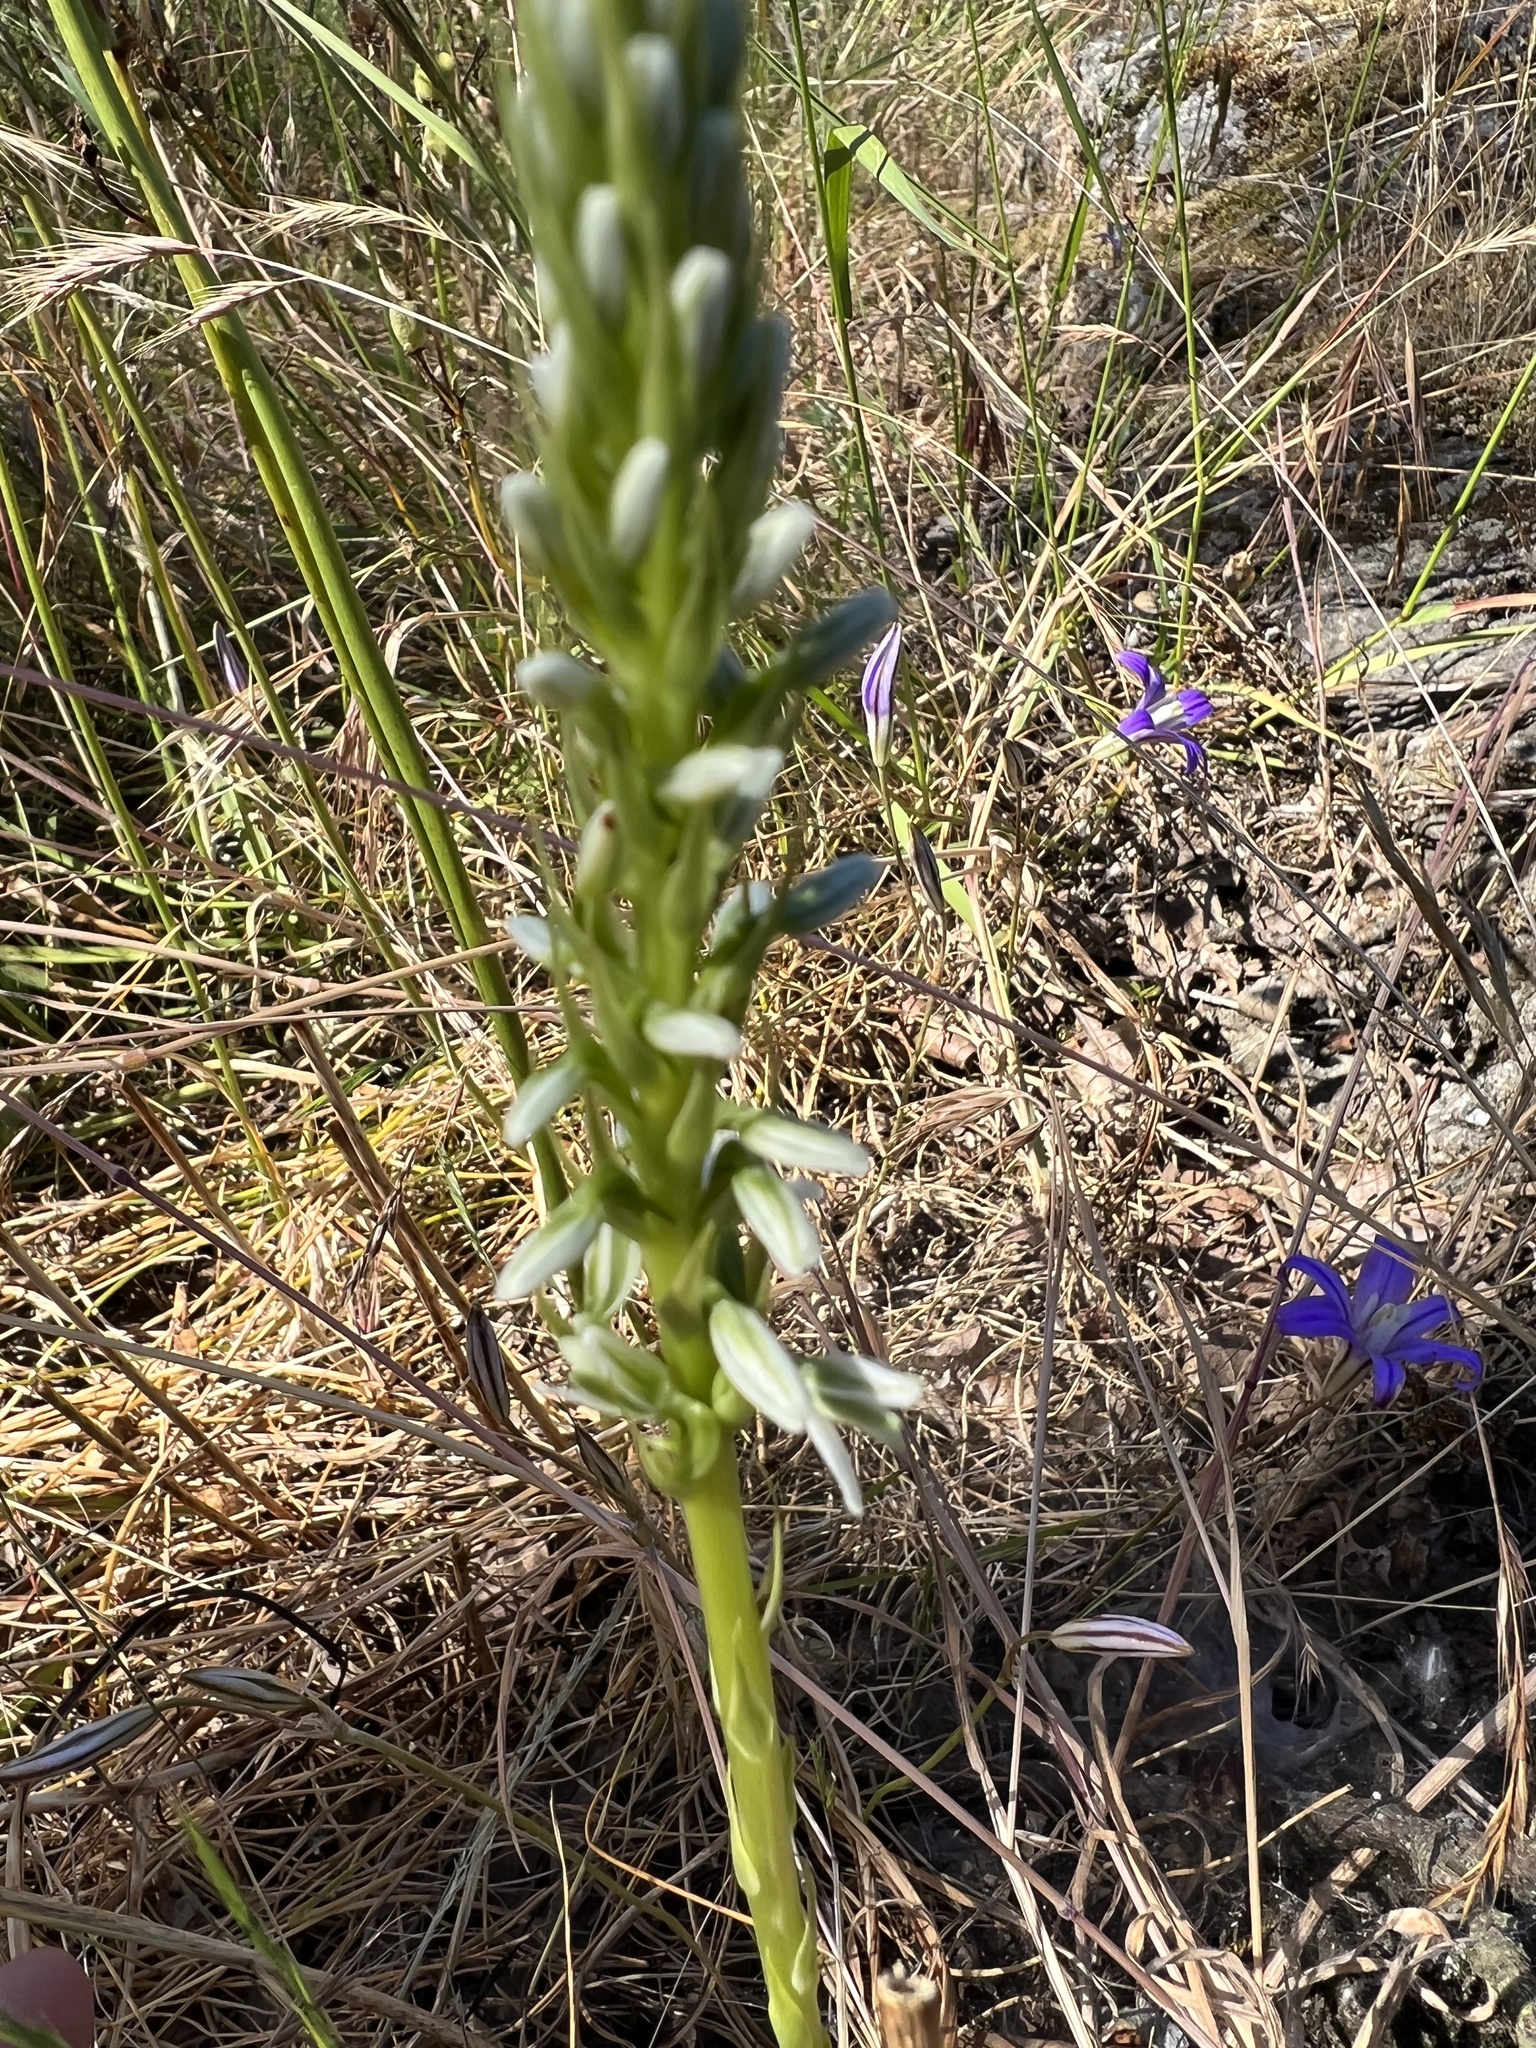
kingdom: Plantae
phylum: Tracheophyta
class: Liliopsida
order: Asparagales
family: Orchidaceae
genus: Platanthera
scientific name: Platanthera elegans
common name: Coast piperia
